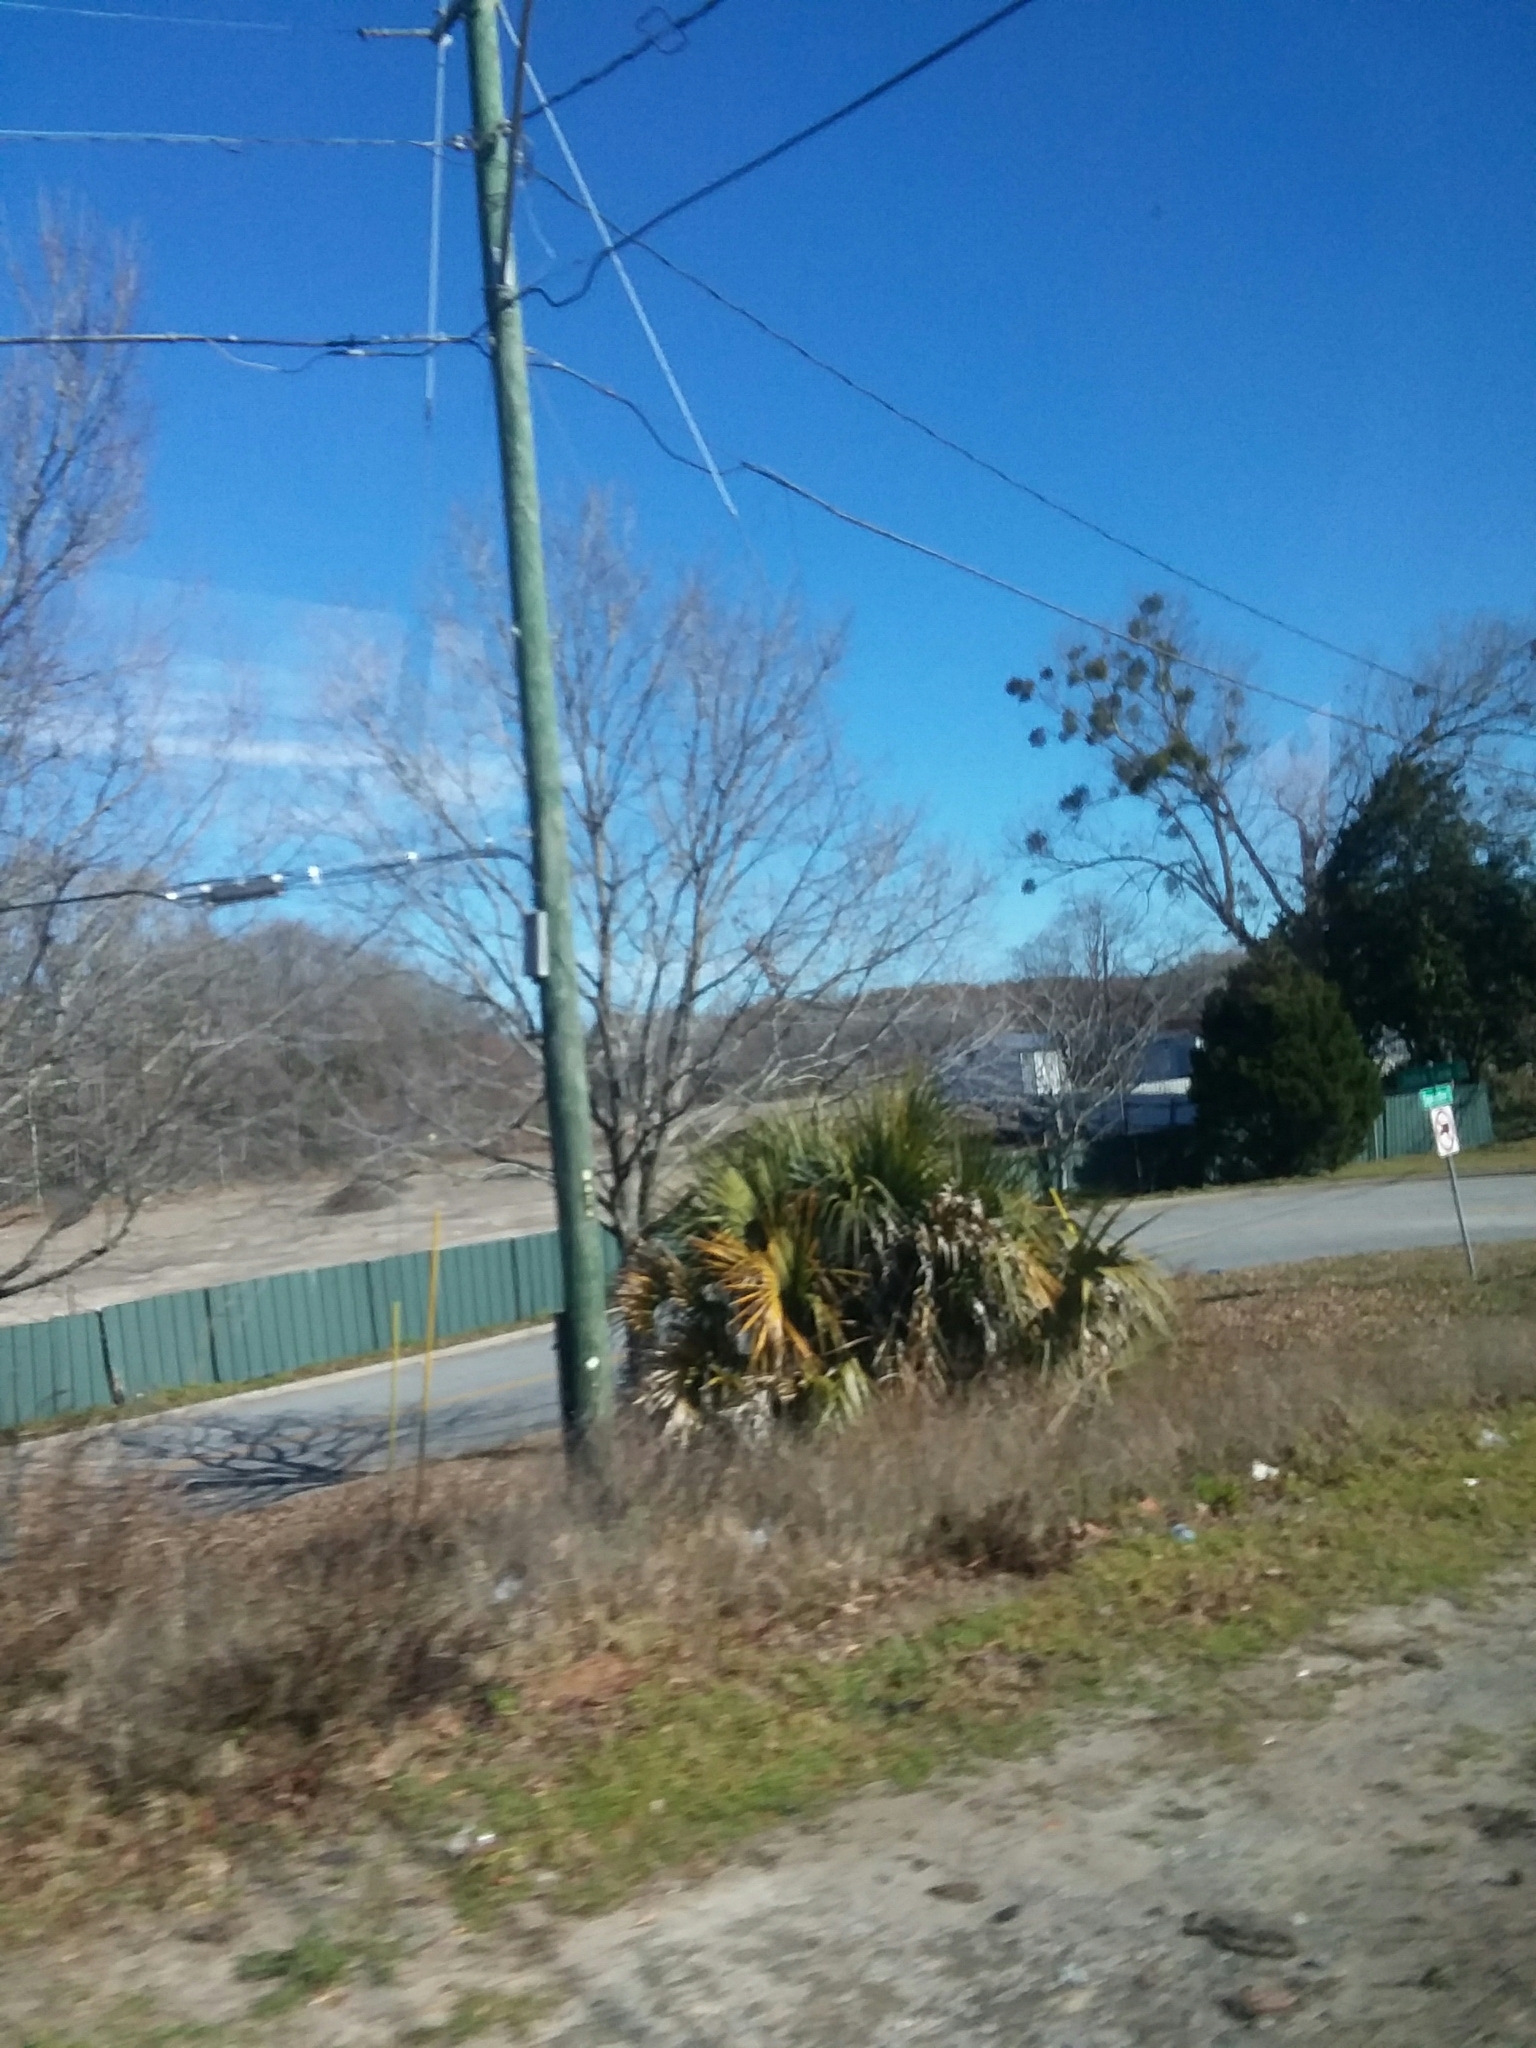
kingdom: Plantae
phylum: Tracheophyta
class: Magnoliopsida
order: Santalales
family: Viscaceae
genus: Phoradendron
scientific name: Phoradendron leucarpum
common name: Pacific mistletoe
